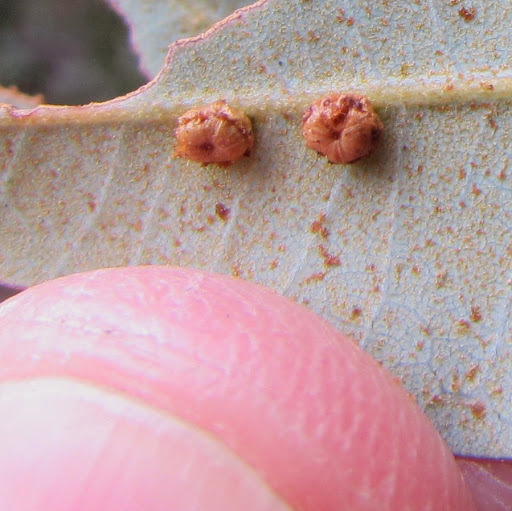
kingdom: Animalia
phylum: Arthropoda
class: Insecta
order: Hymenoptera
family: Cynipidae
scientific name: Cynipidae
